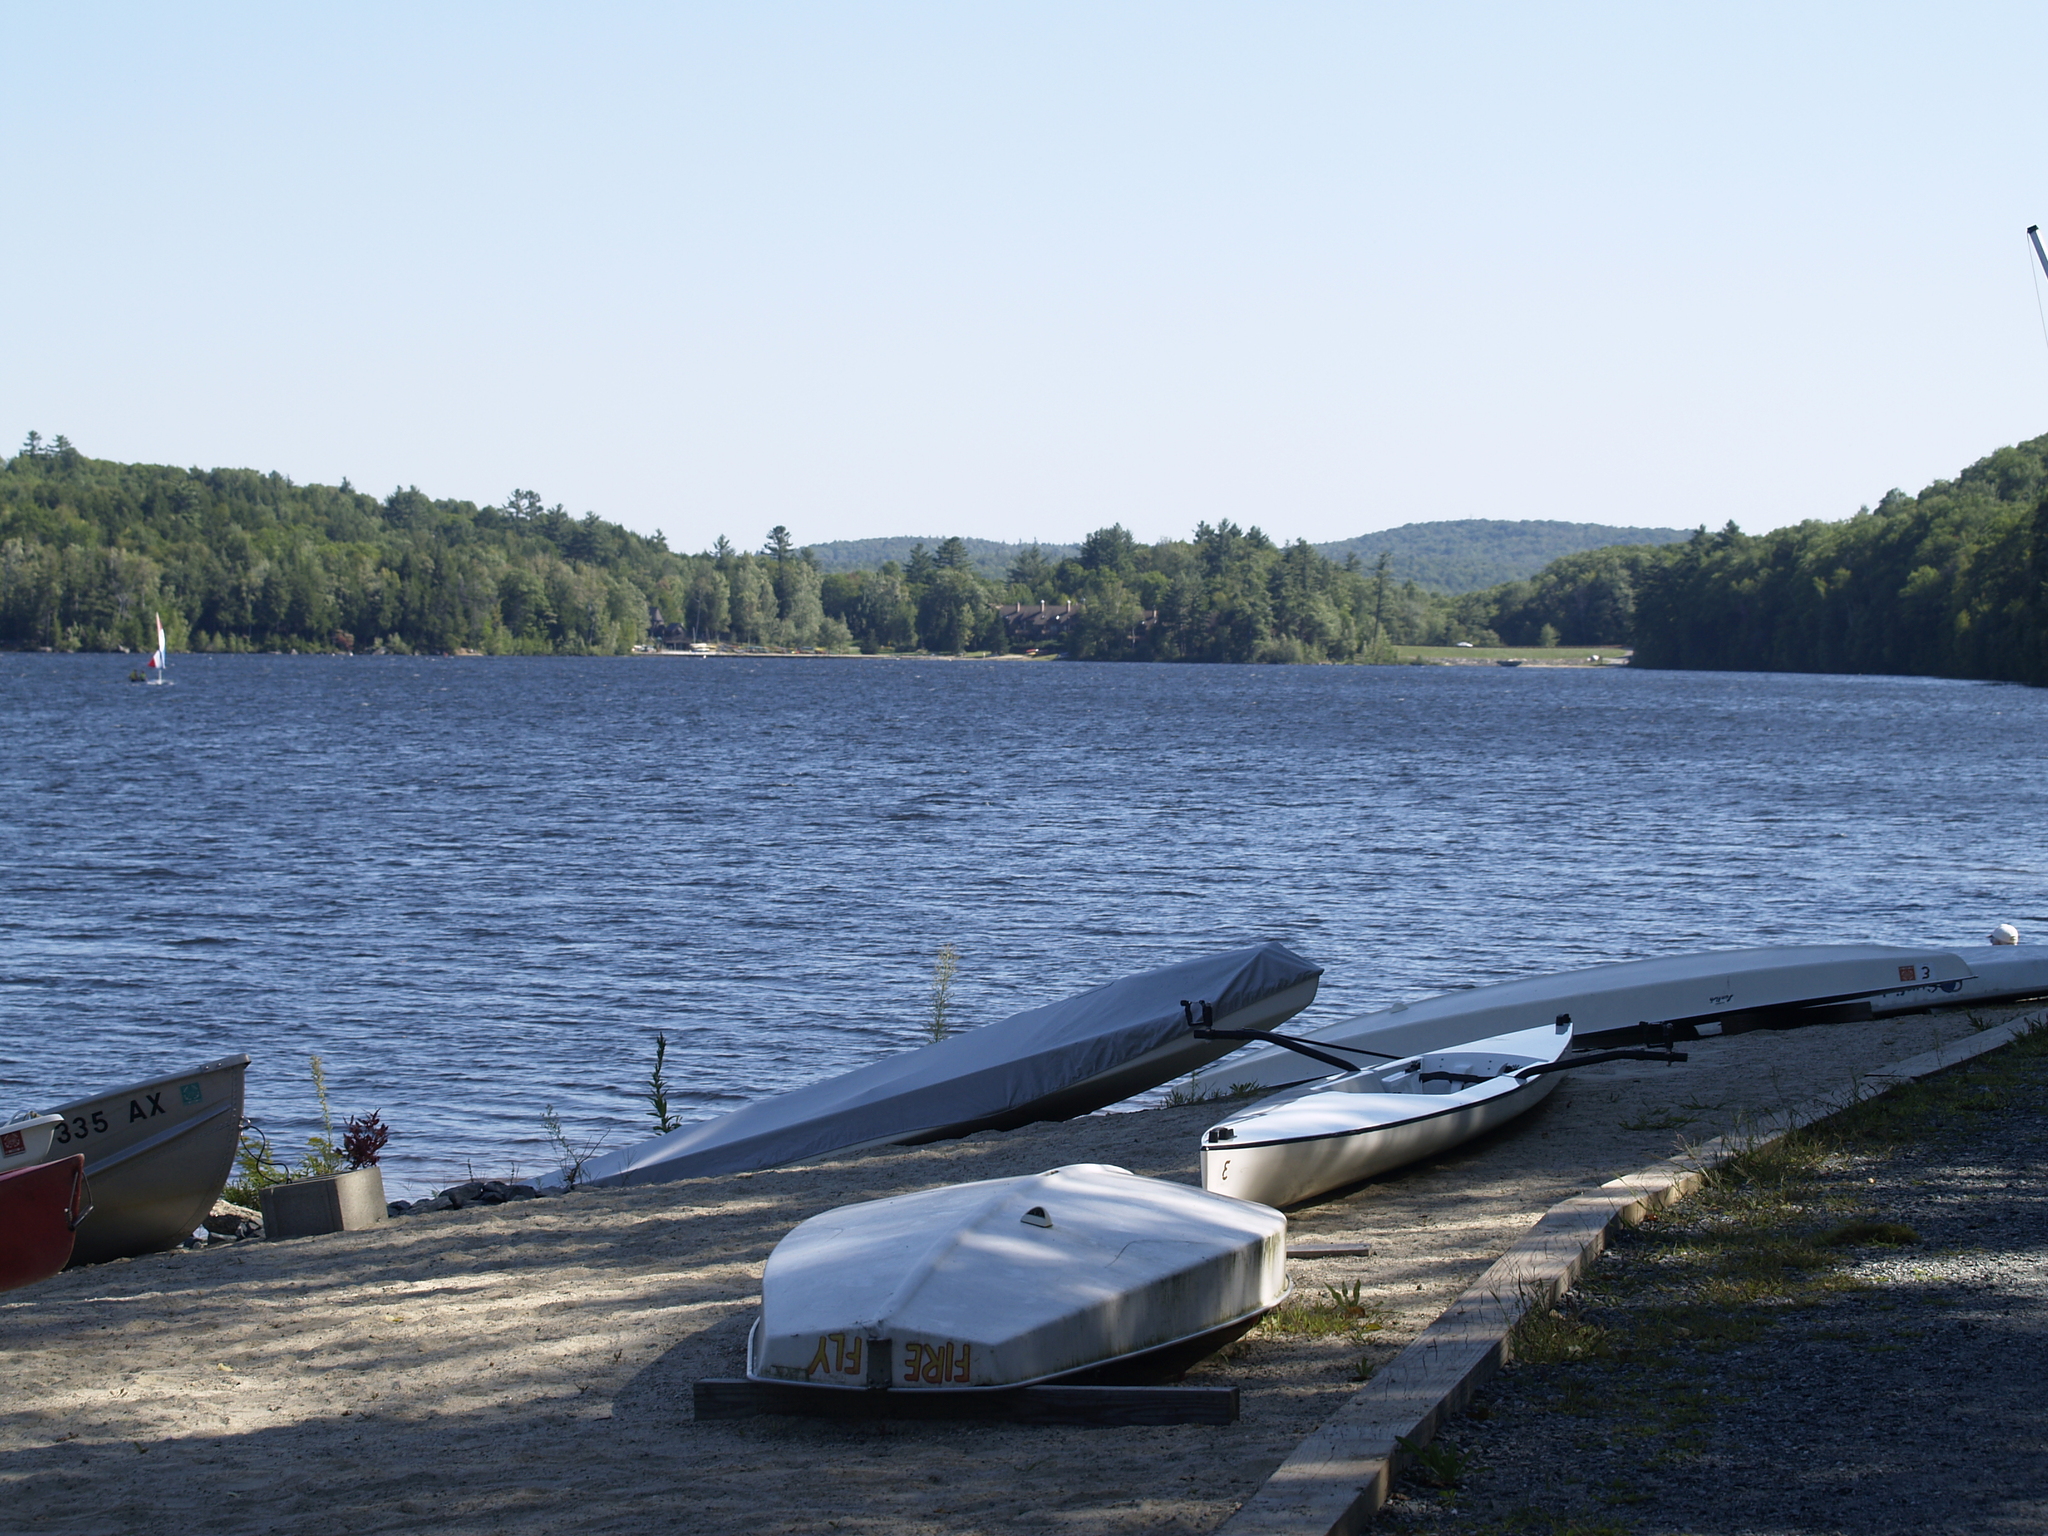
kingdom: Plantae
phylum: Tracheophyta
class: Pinopsida
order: Pinales
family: Pinaceae
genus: Pinus
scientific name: Pinus strobus
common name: Weymouth pine
